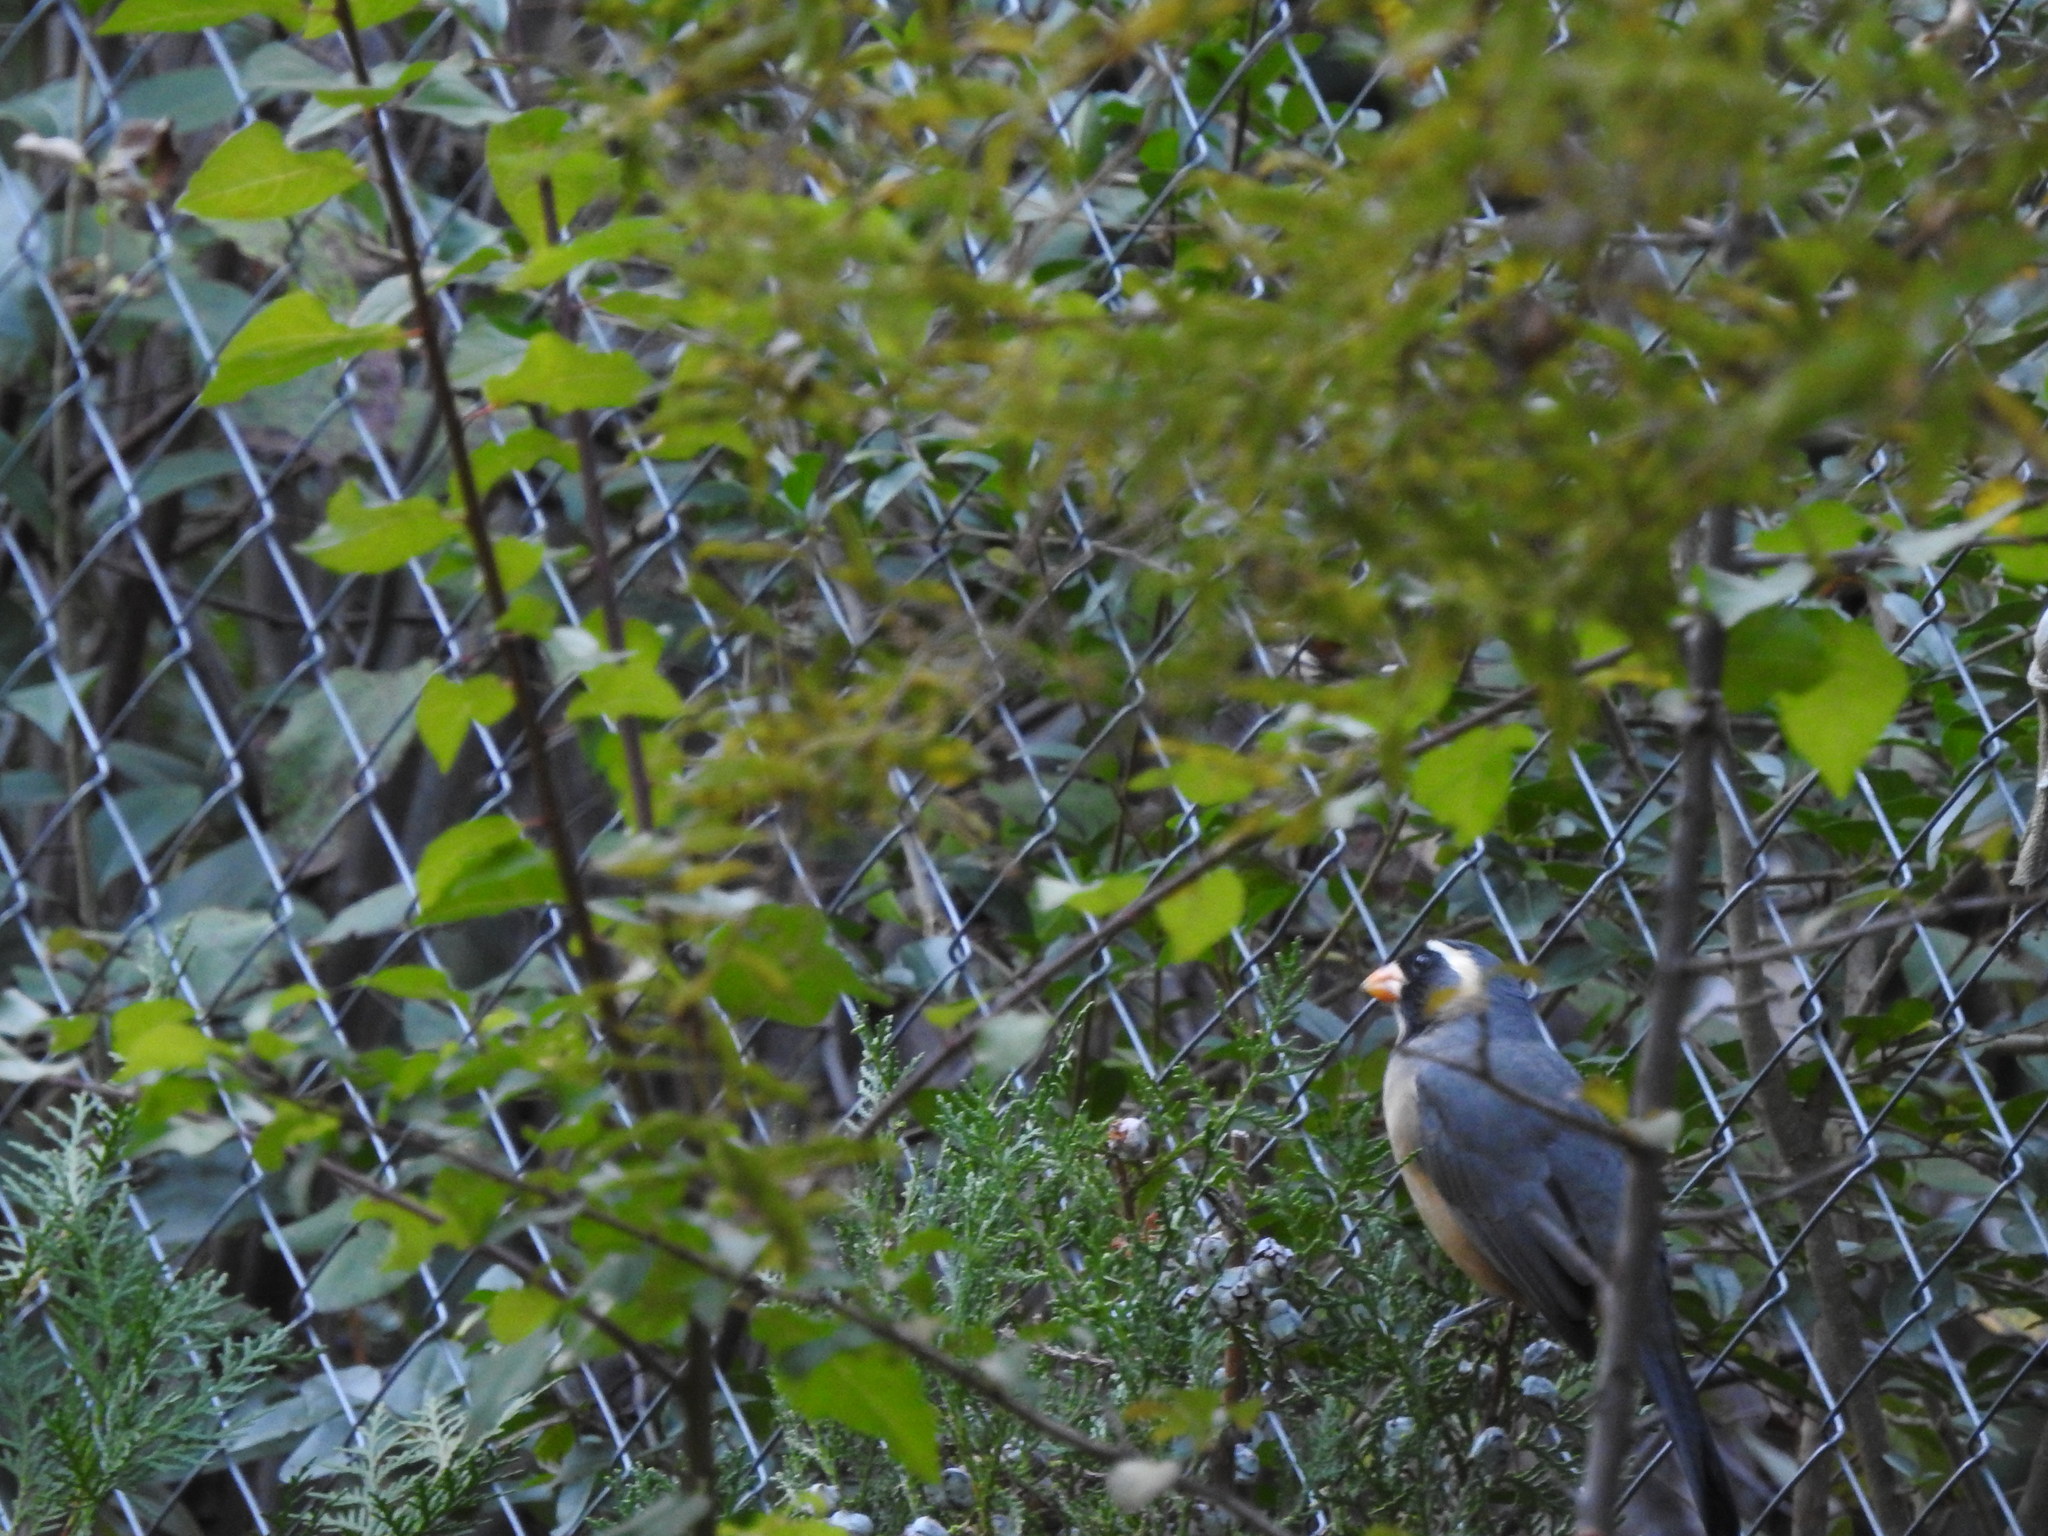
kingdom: Animalia
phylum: Chordata
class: Aves
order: Passeriformes
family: Thraupidae
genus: Saltator
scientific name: Saltator aurantiirostris
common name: Golden-billed saltator
